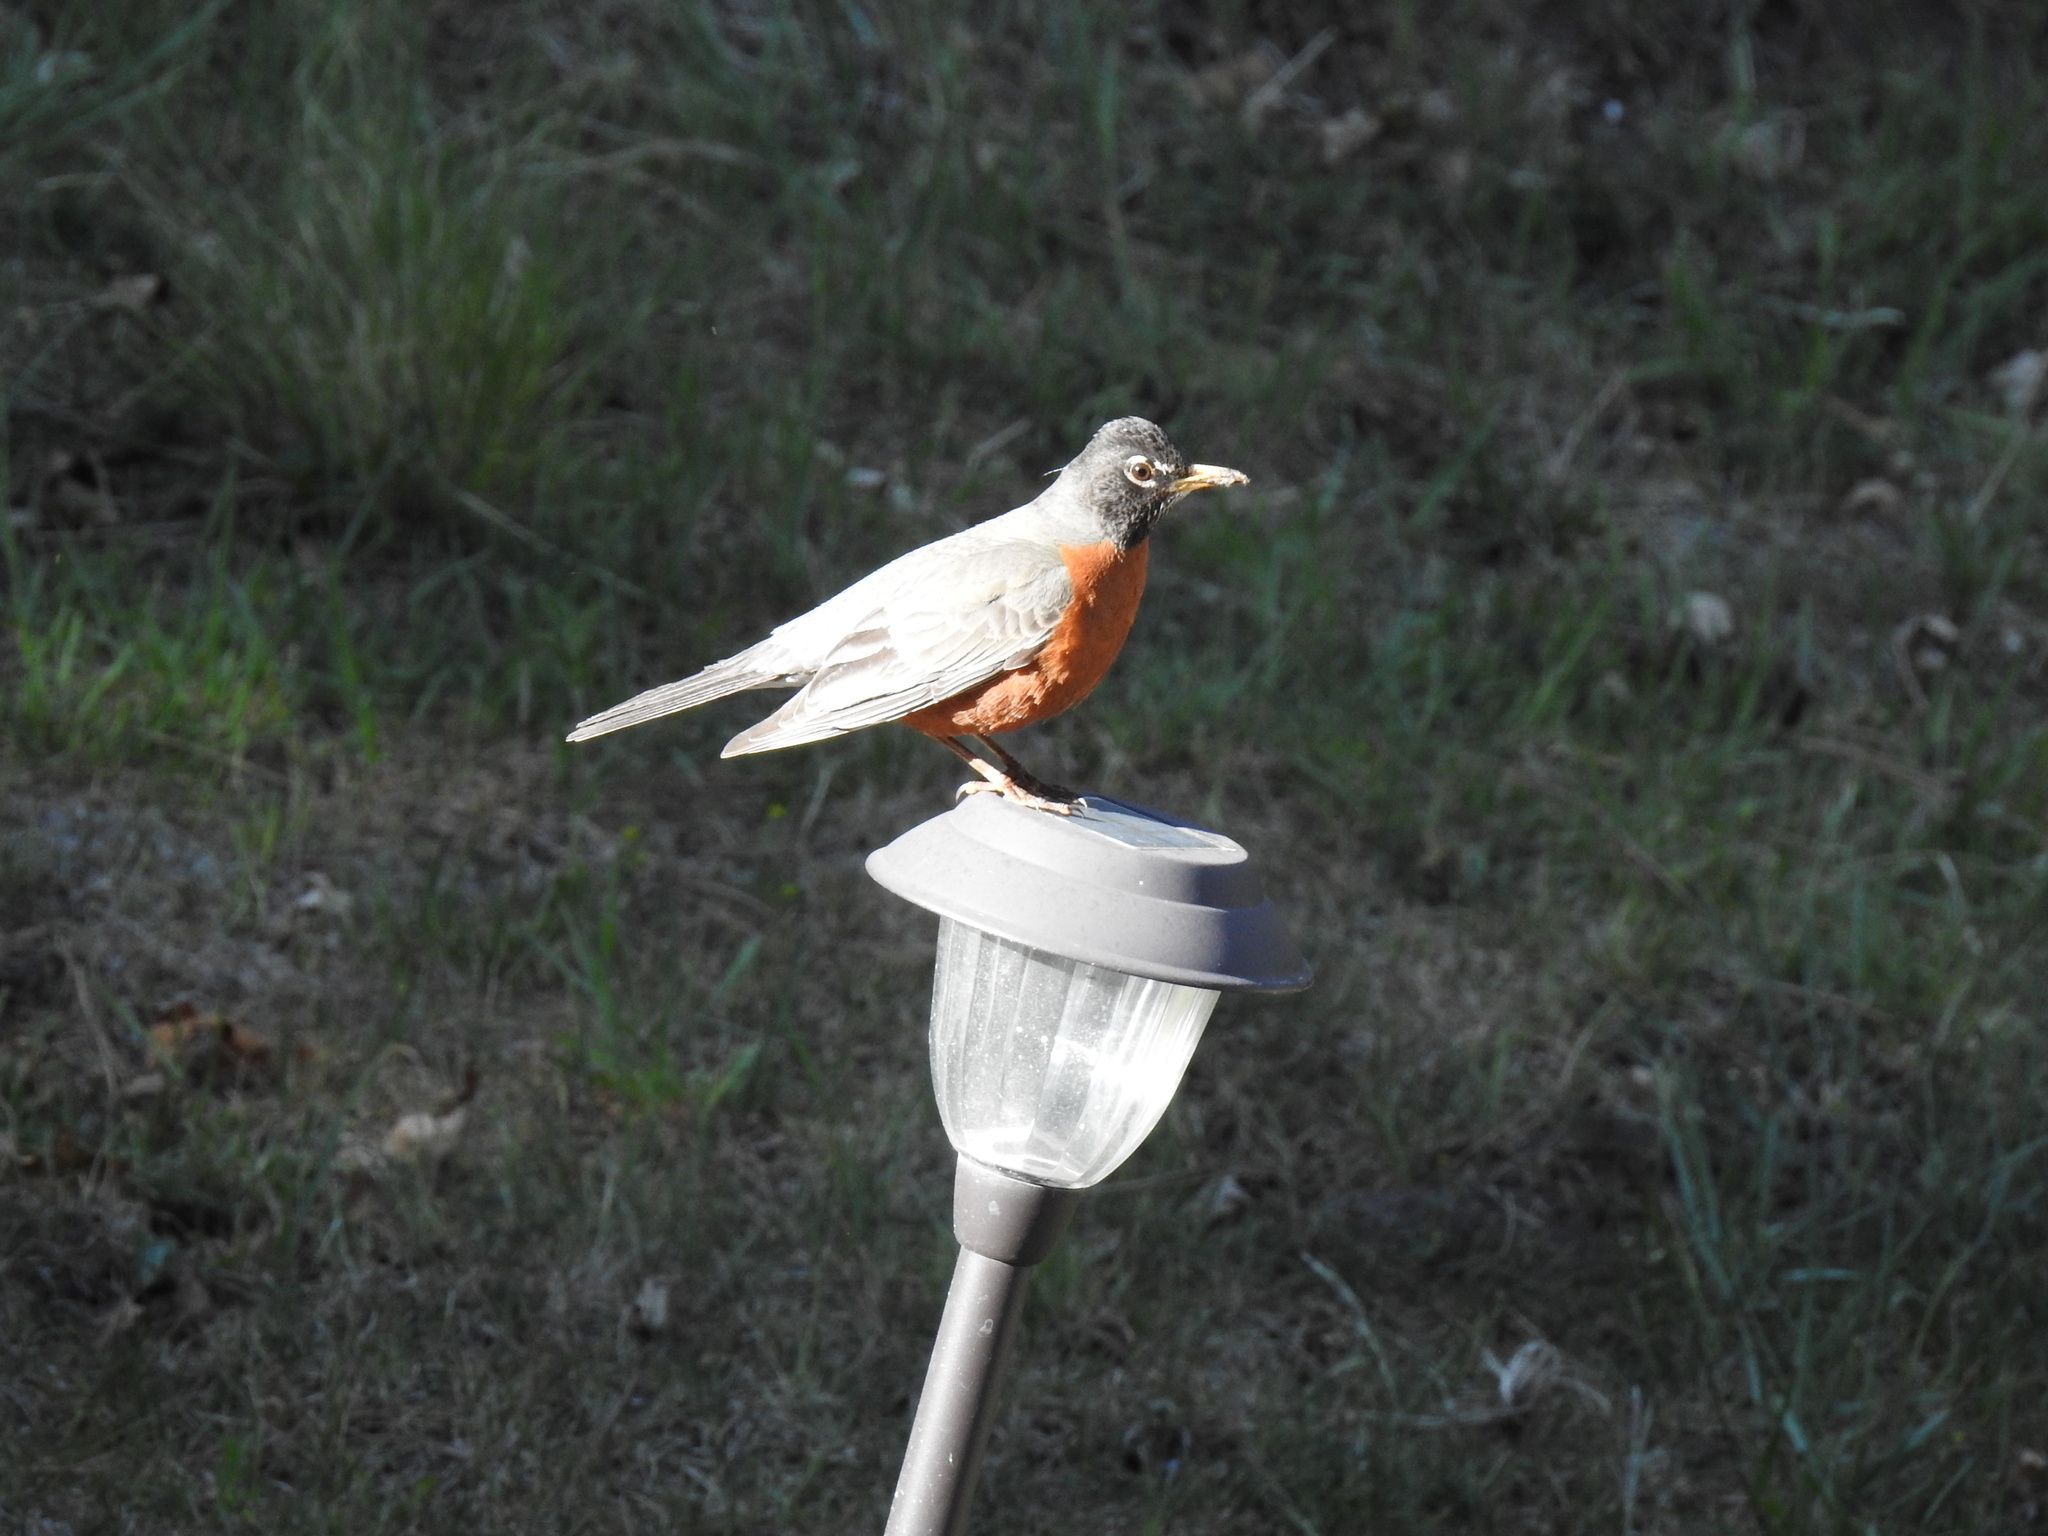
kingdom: Animalia
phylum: Chordata
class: Aves
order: Passeriformes
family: Turdidae
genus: Turdus
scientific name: Turdus migratorius
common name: American robin
